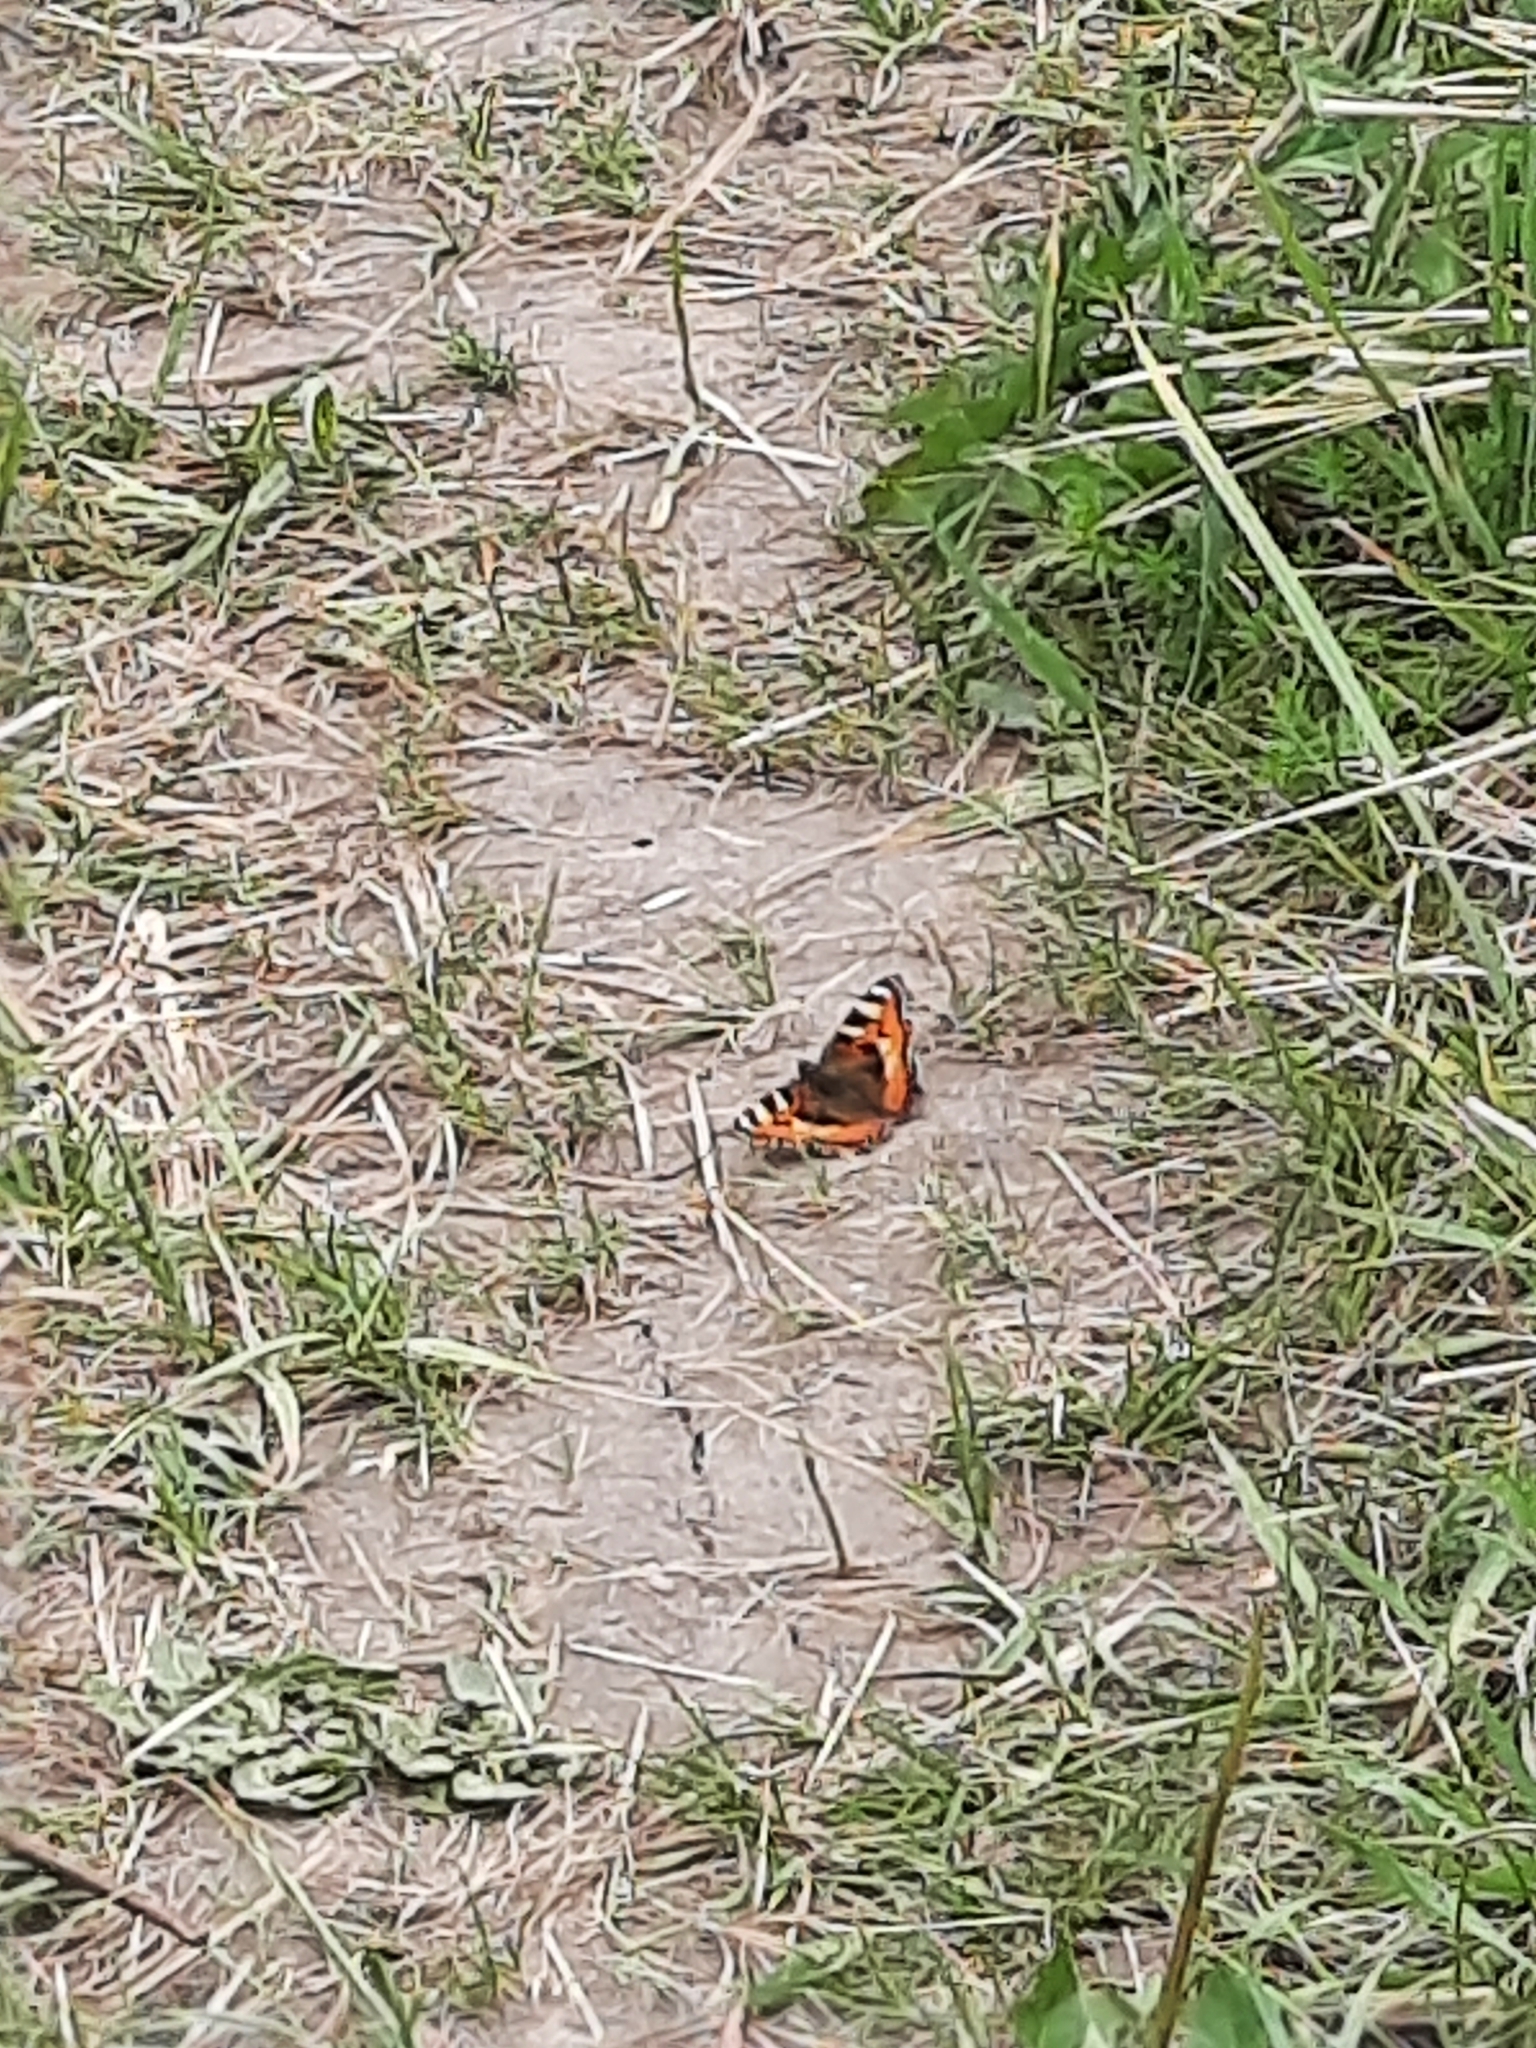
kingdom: Animalia
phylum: Arthropoda
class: Insecta
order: Lepidoptera
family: Nymphalidae
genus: Aglais
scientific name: Aglais urticae
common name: Small tortoiseshell
